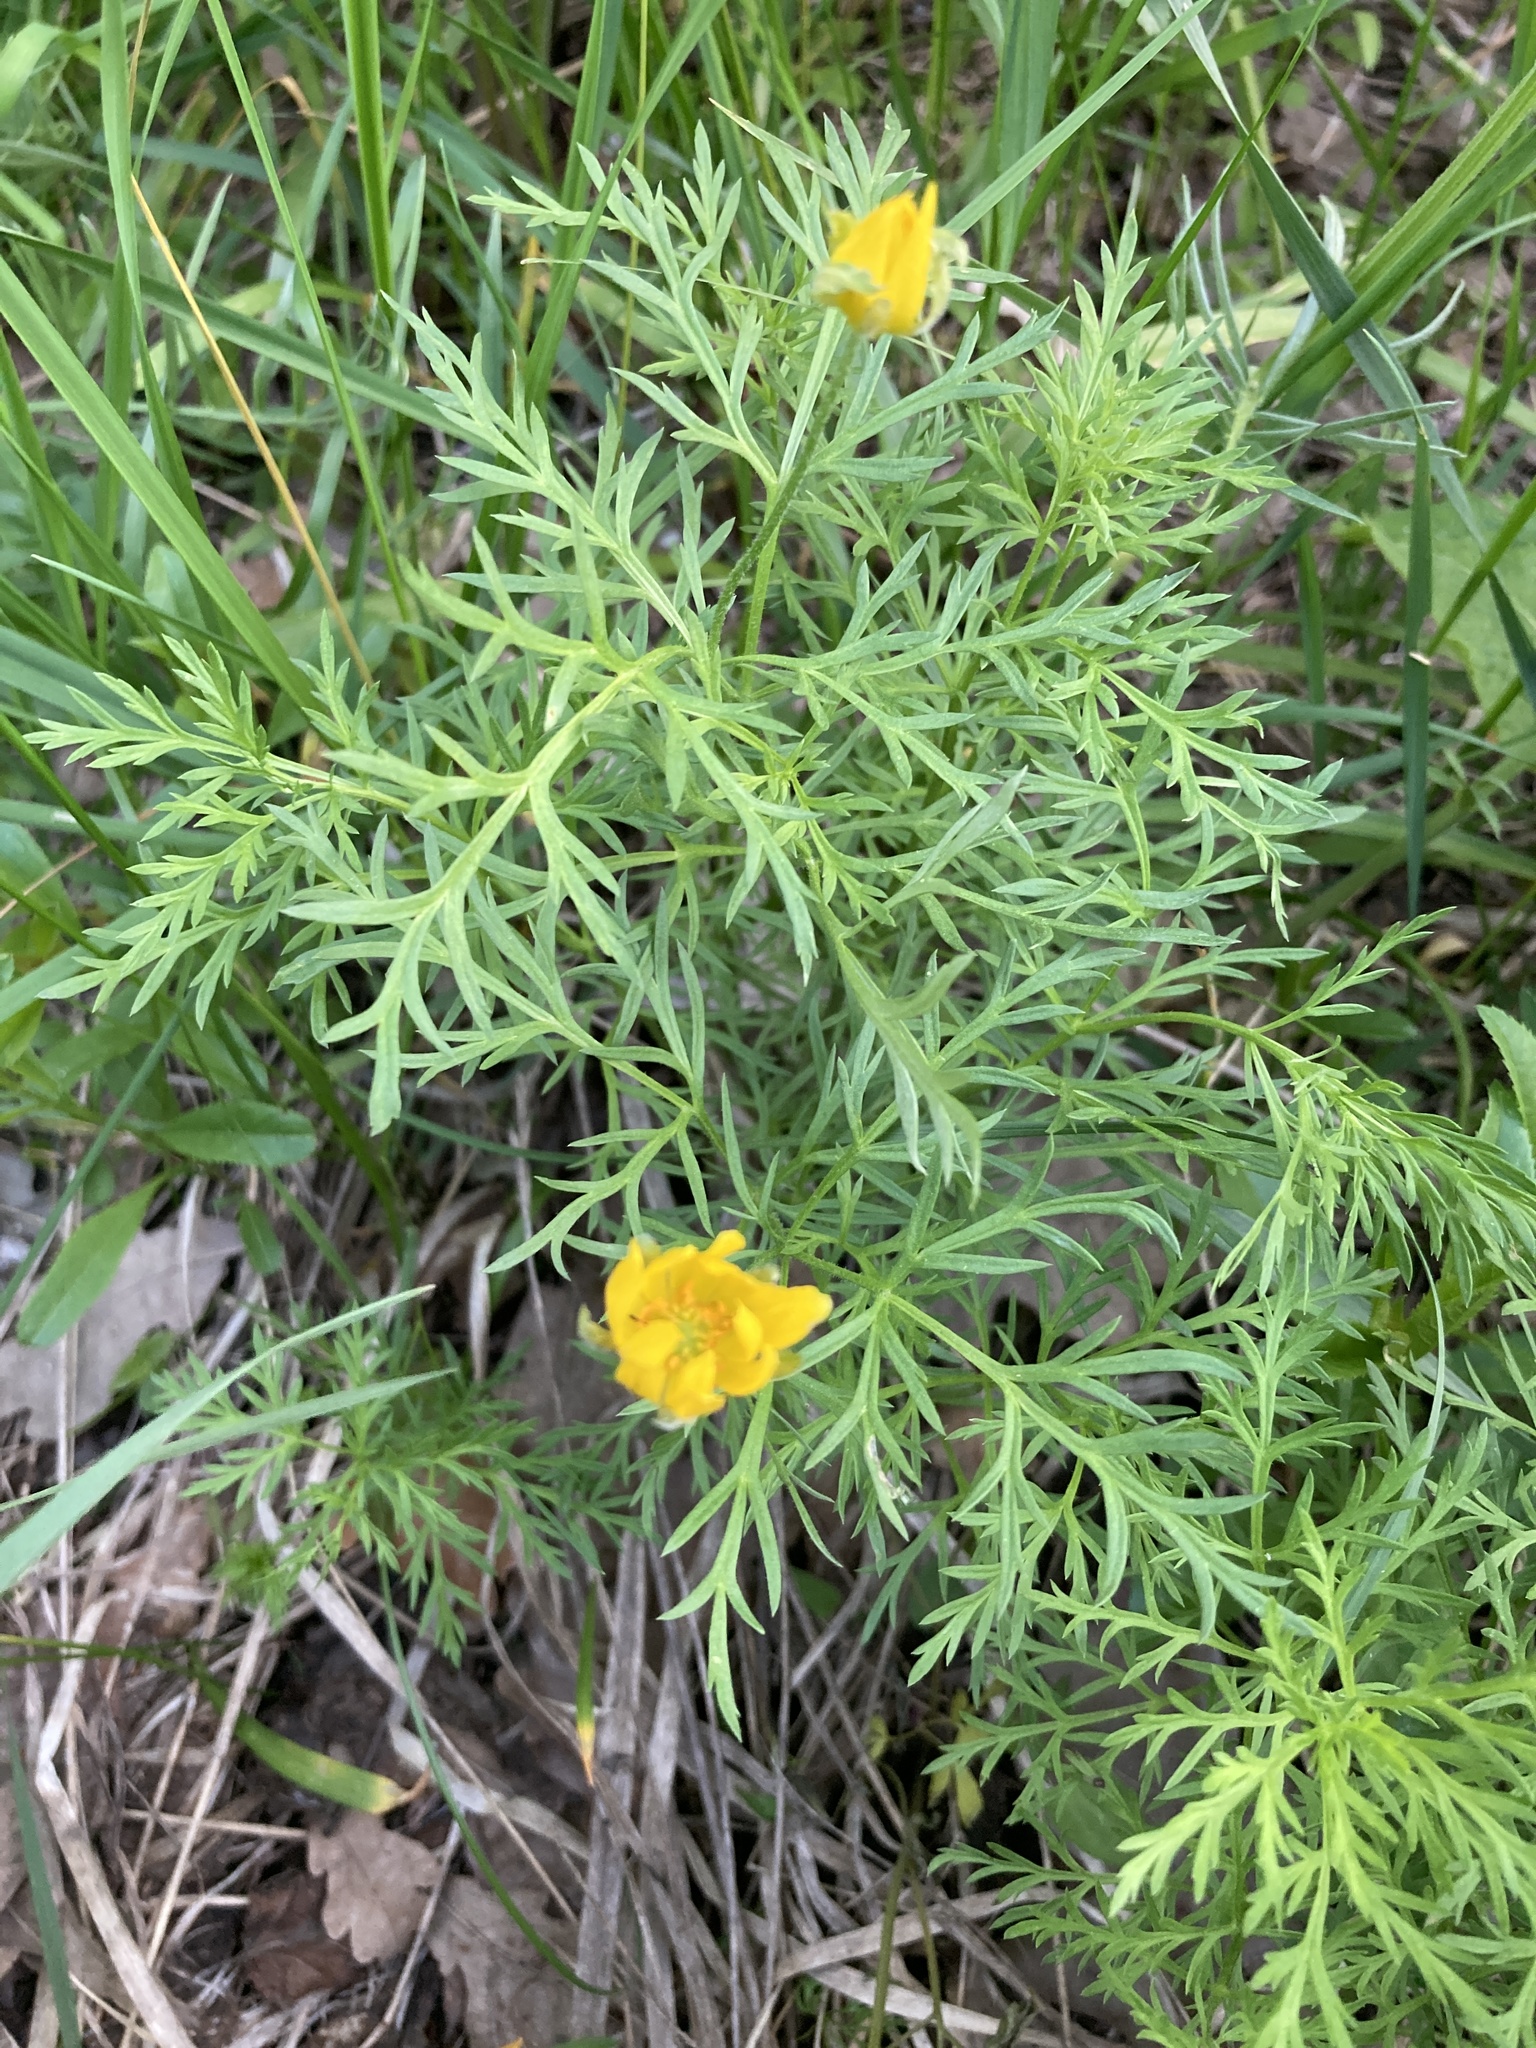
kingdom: Plantae
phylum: Tracheophyta
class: Magnoliopsida
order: Ranunculales
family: Ranunculaceae
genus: Adonis
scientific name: Adonis volgensis
